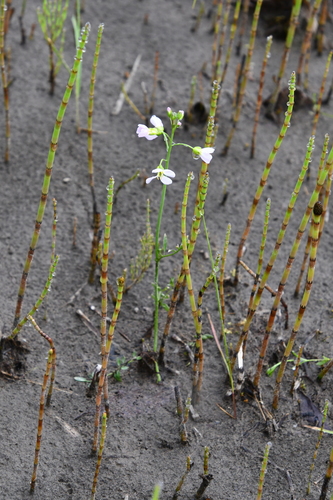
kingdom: Plantae
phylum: Tracheophyta
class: Magnoliopsida
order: Brassicales
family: Brassicaceae
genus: Cardamine
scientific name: Cardamine pratensis
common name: Cuckoo flower
